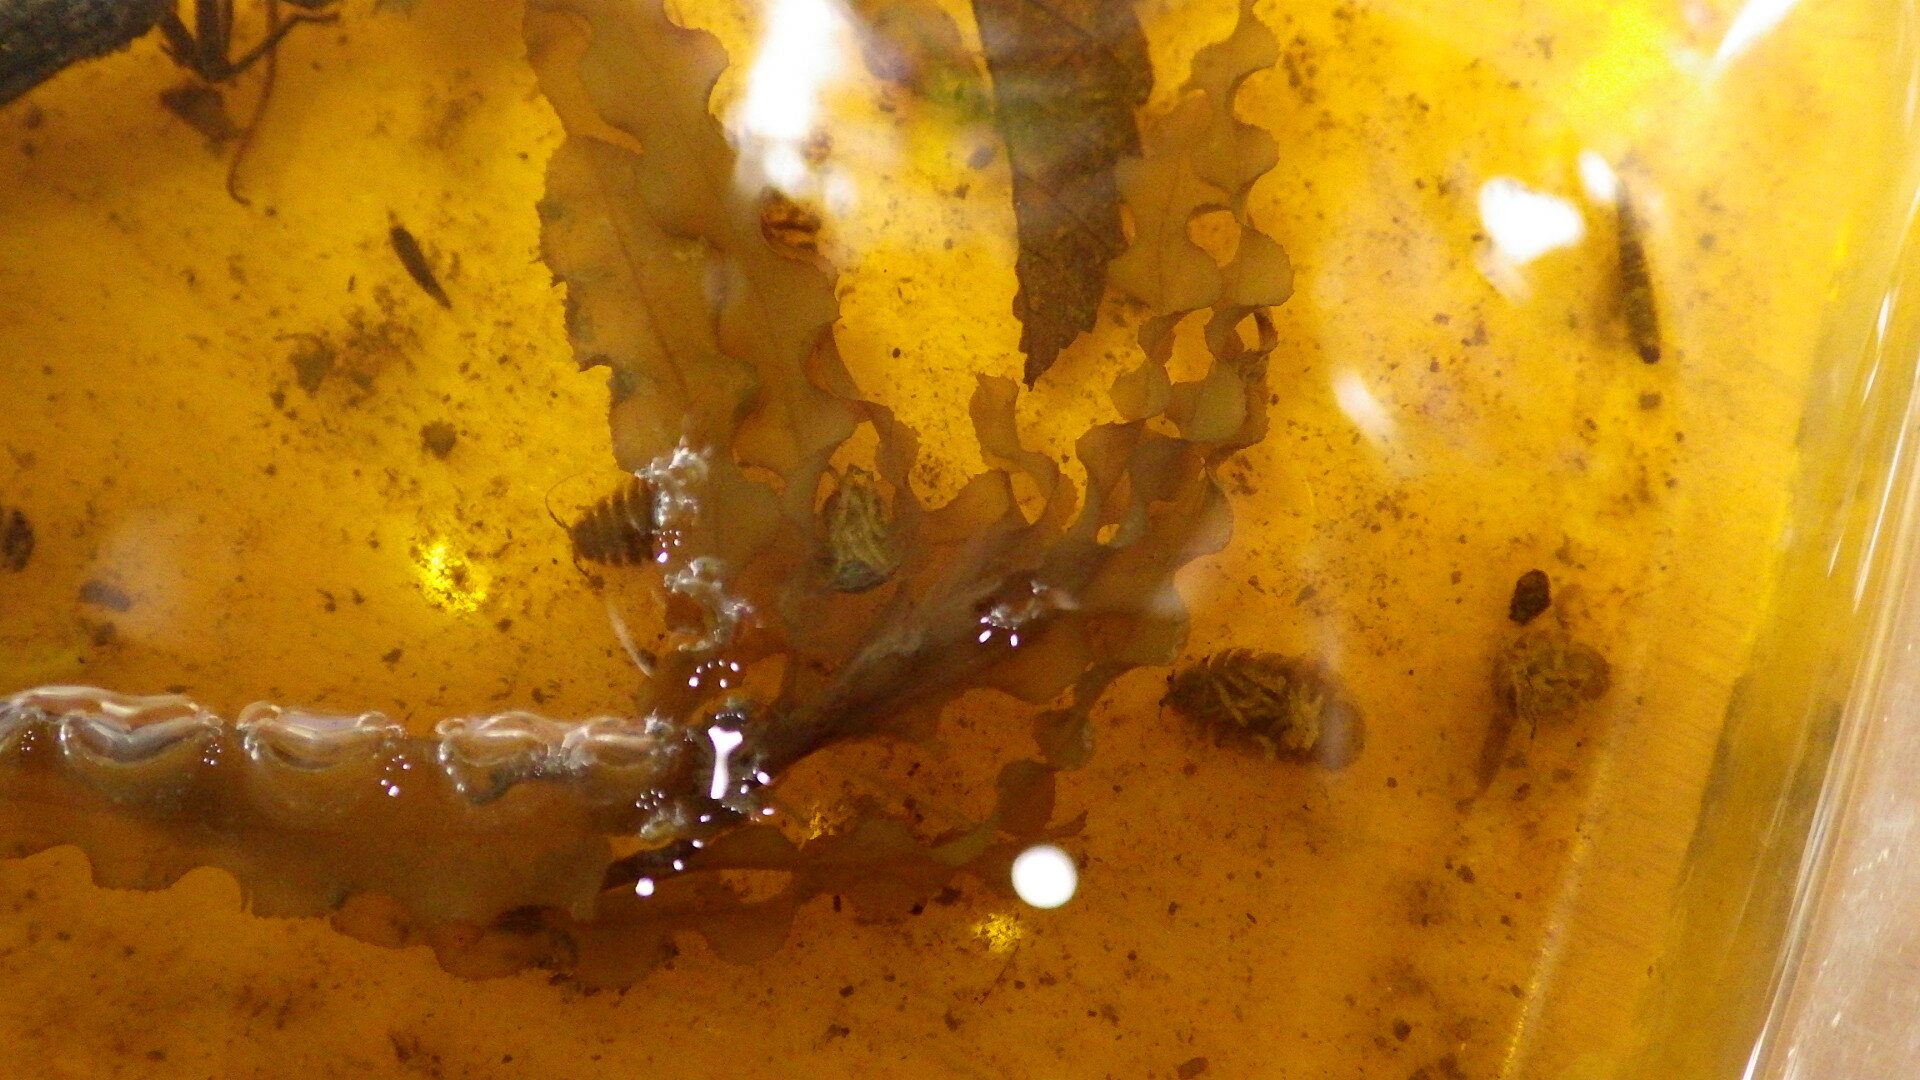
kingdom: Plantae
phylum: Tracheophyta
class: Liliopsida
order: Alismatales
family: Potamogetonaceae
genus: Potamogeton
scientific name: Potamogeton crispus
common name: Curled pondweed
